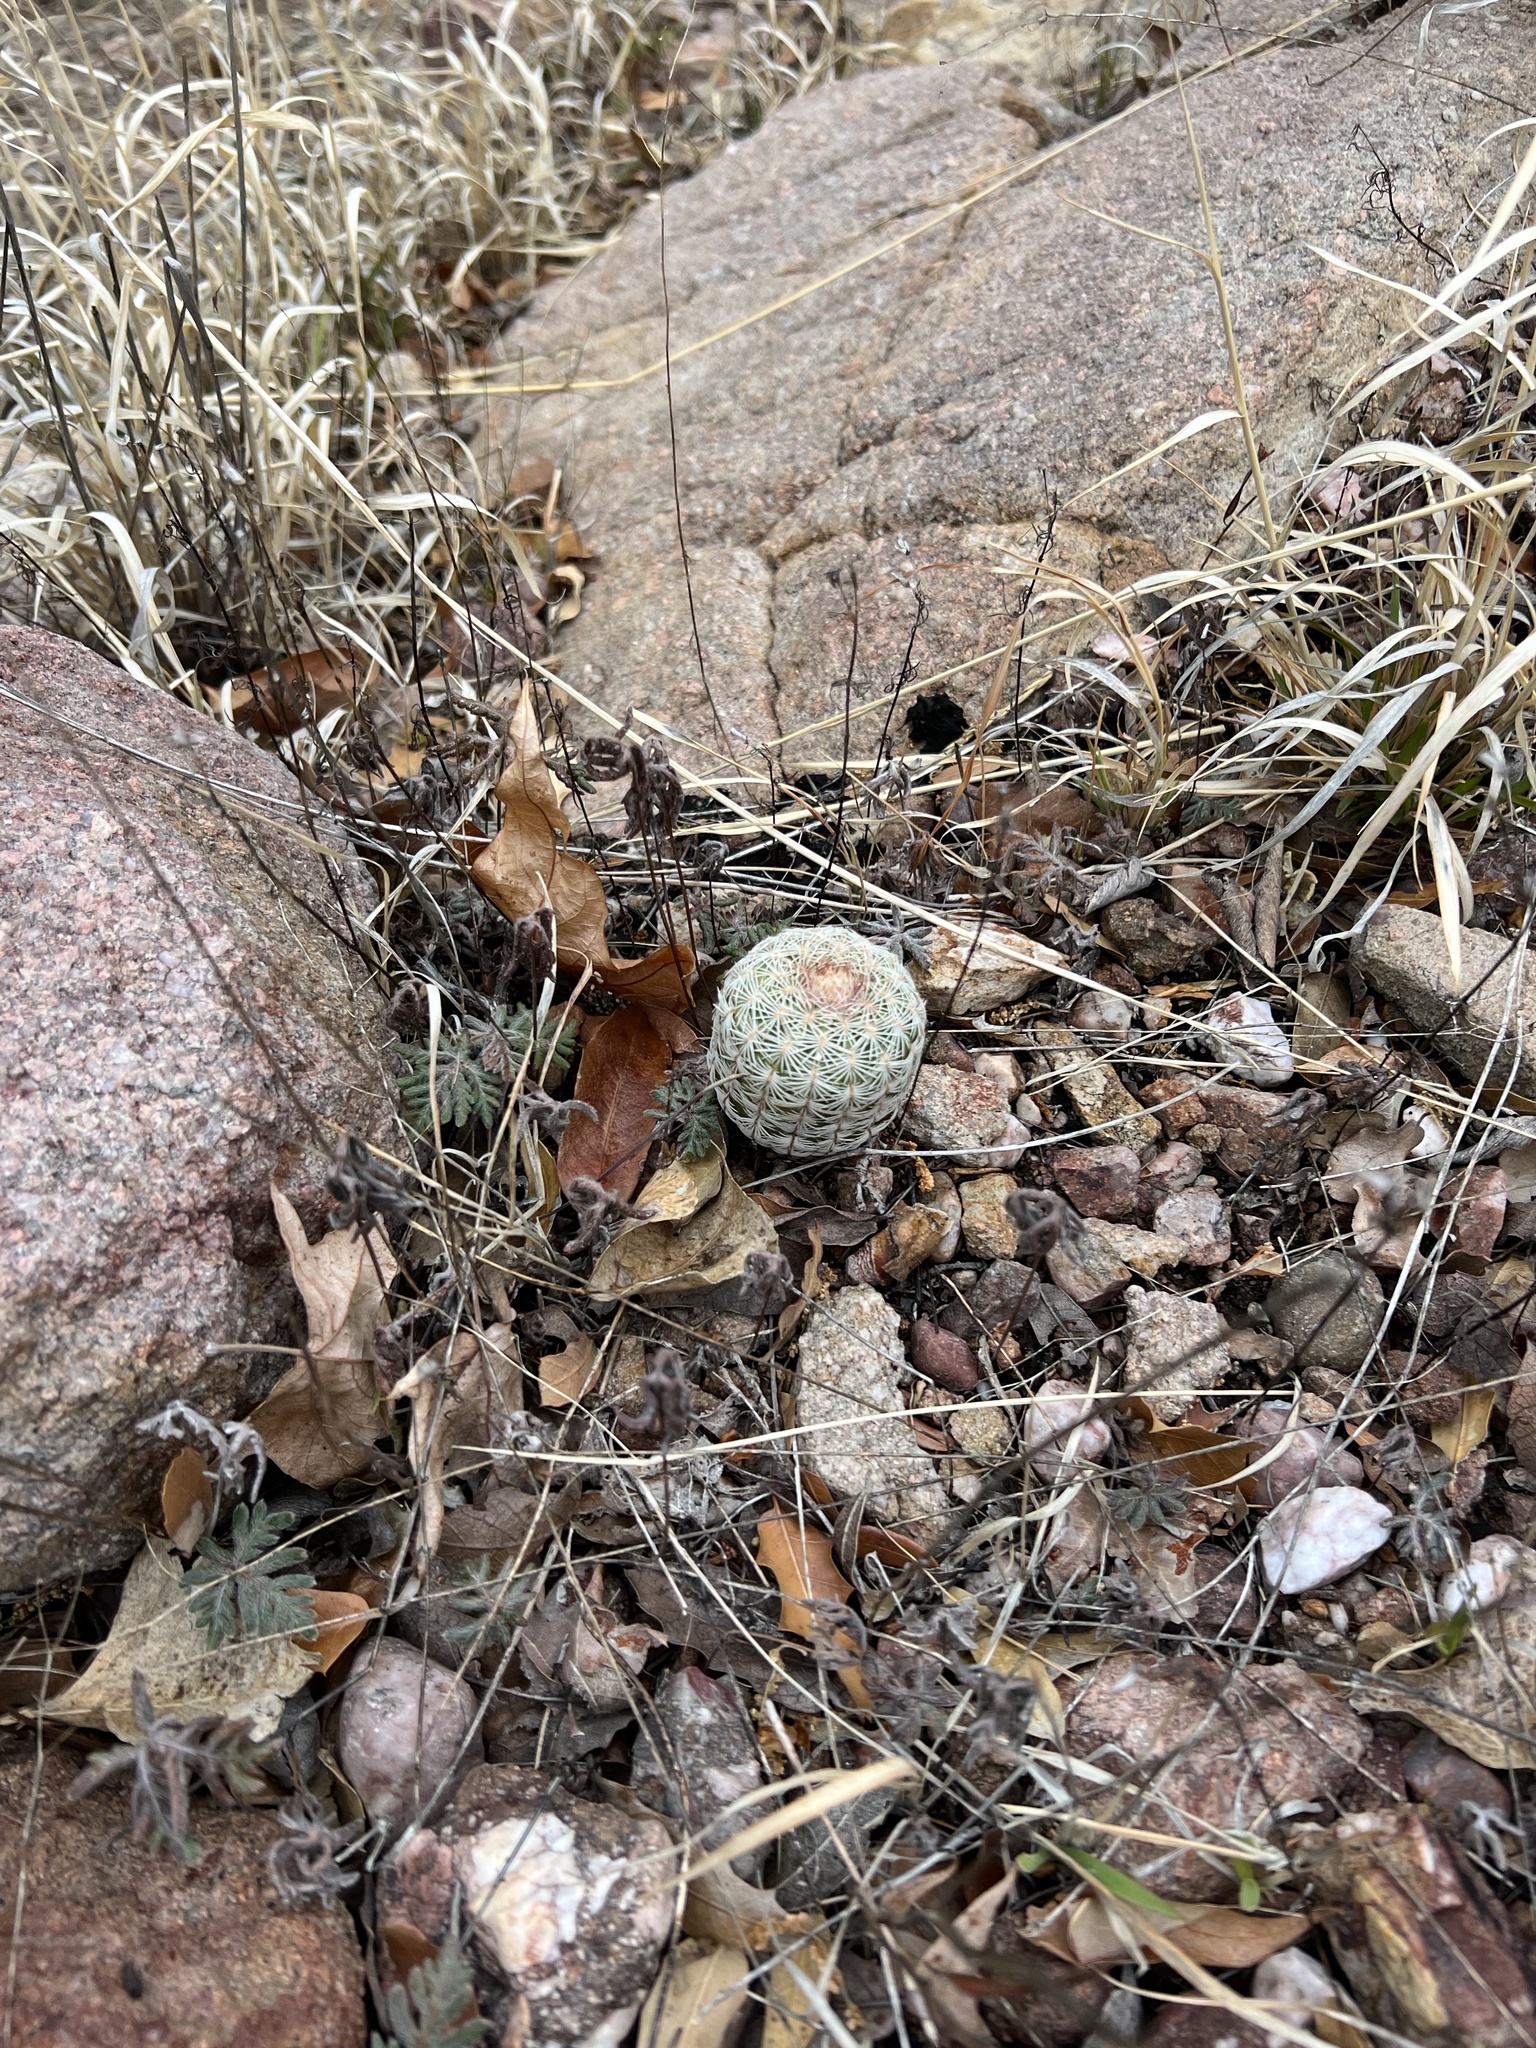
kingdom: Plantae
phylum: Tracheophyta
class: Magnoliopsida
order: Caryophyllales
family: Cactaceae
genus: Echinocereus
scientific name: Echinocereus rigidissimus
